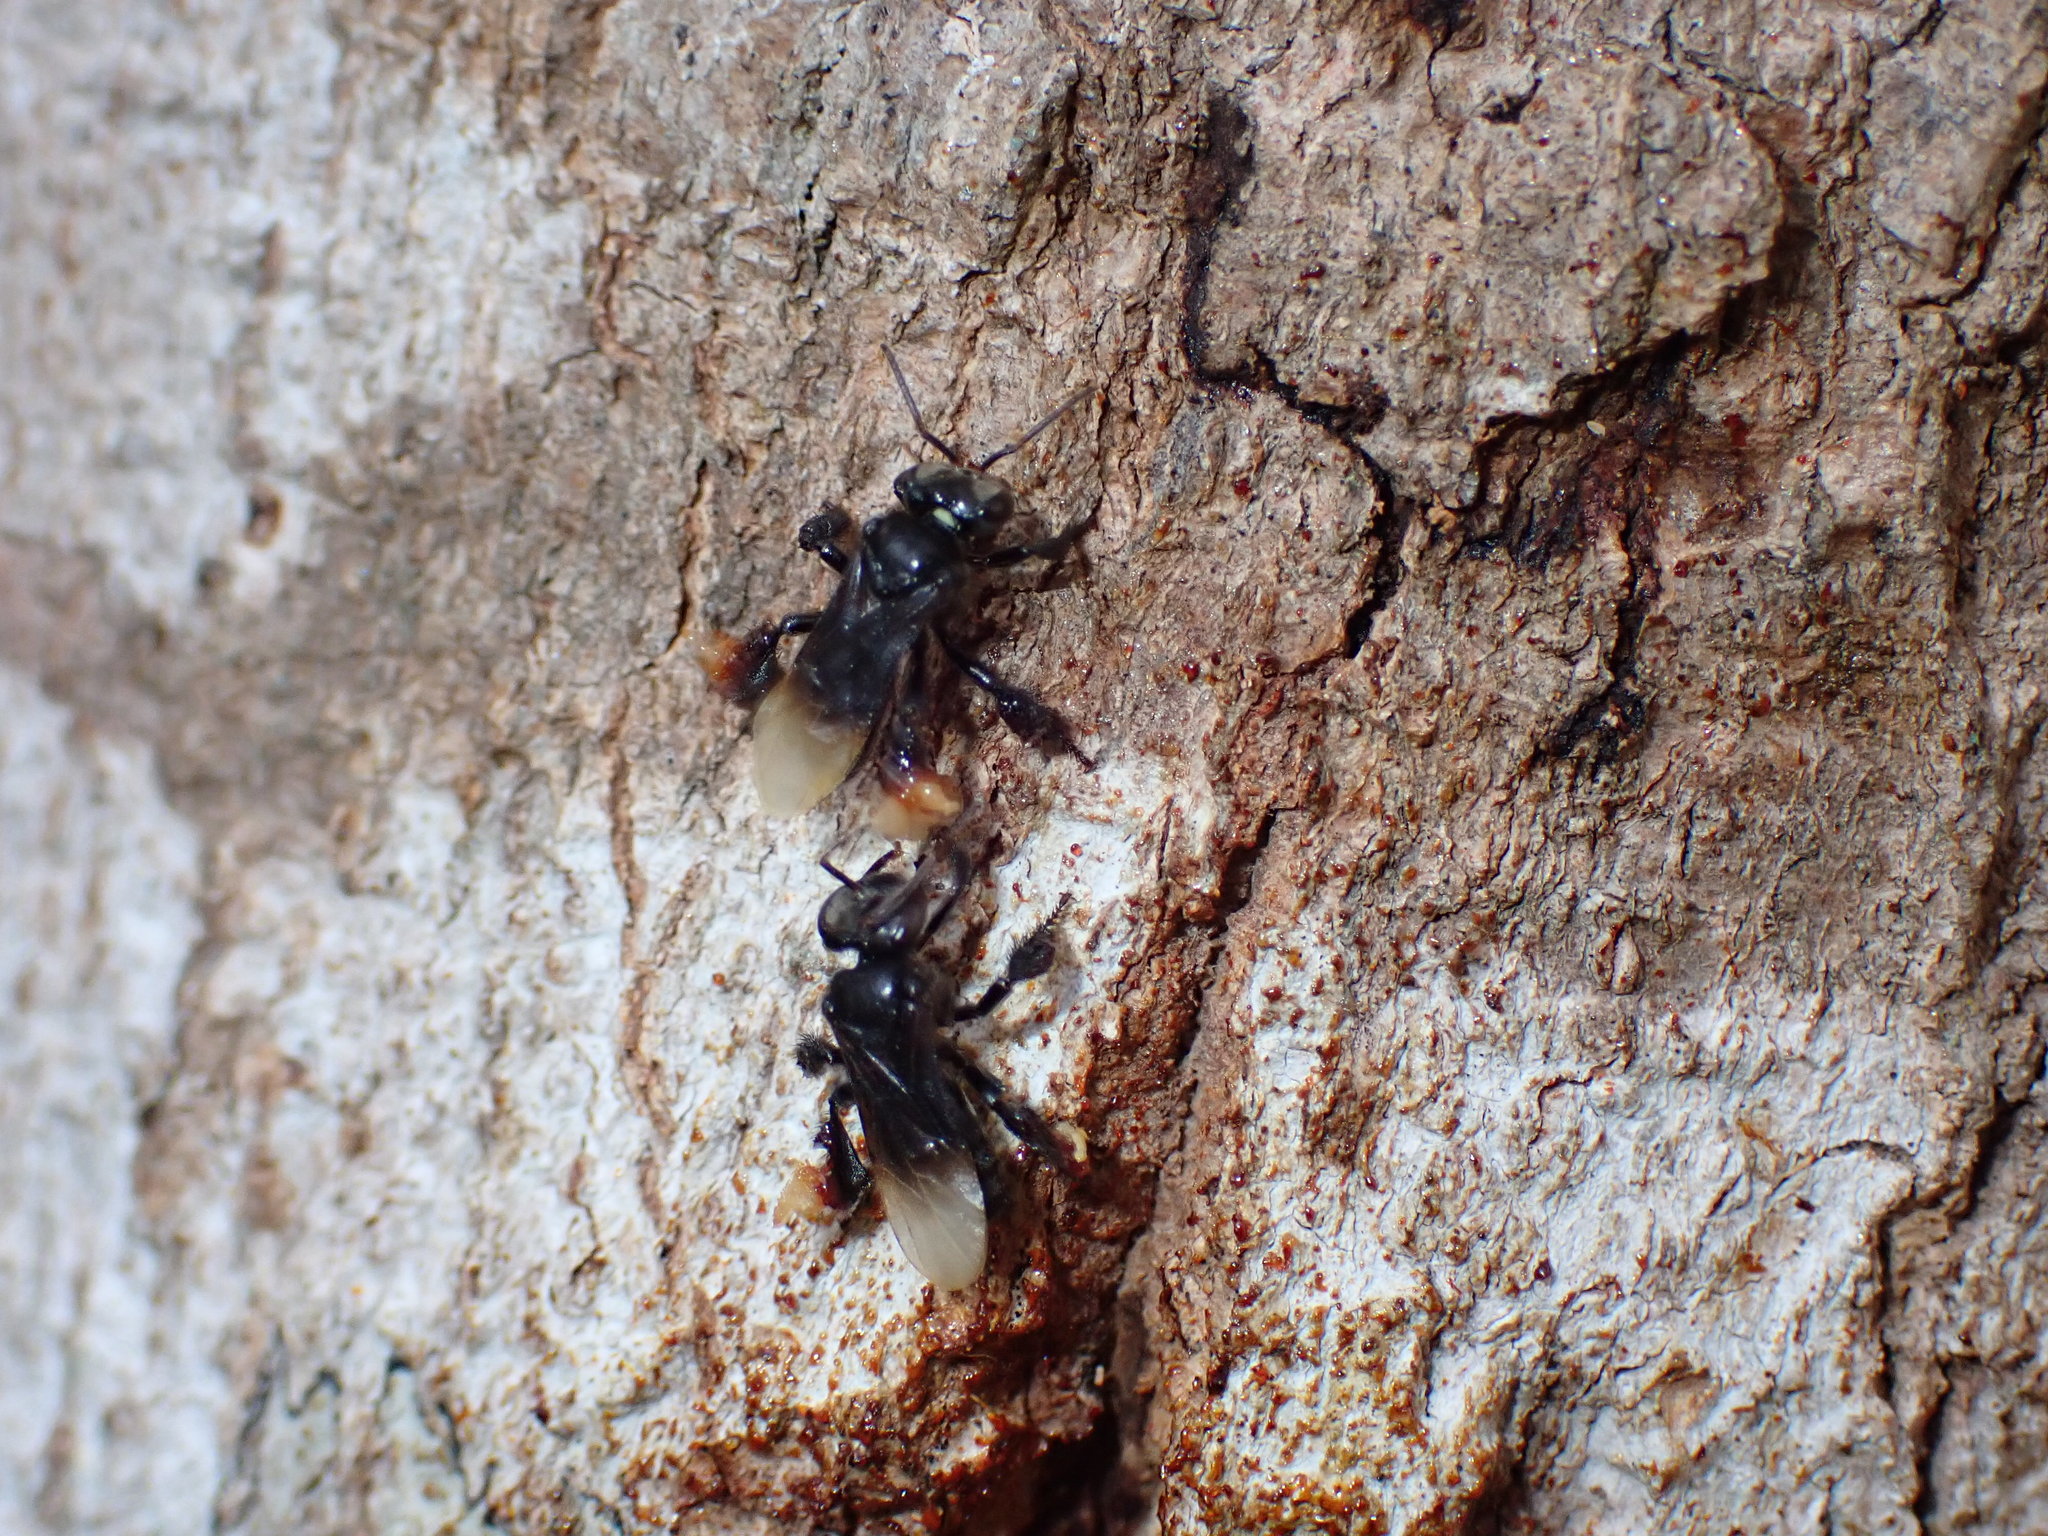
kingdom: Animalia
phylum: Arthropoda
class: Insecta
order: Hymenoptera
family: Apidae
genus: Homotrigona
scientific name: Homotrigona melanoleuca
